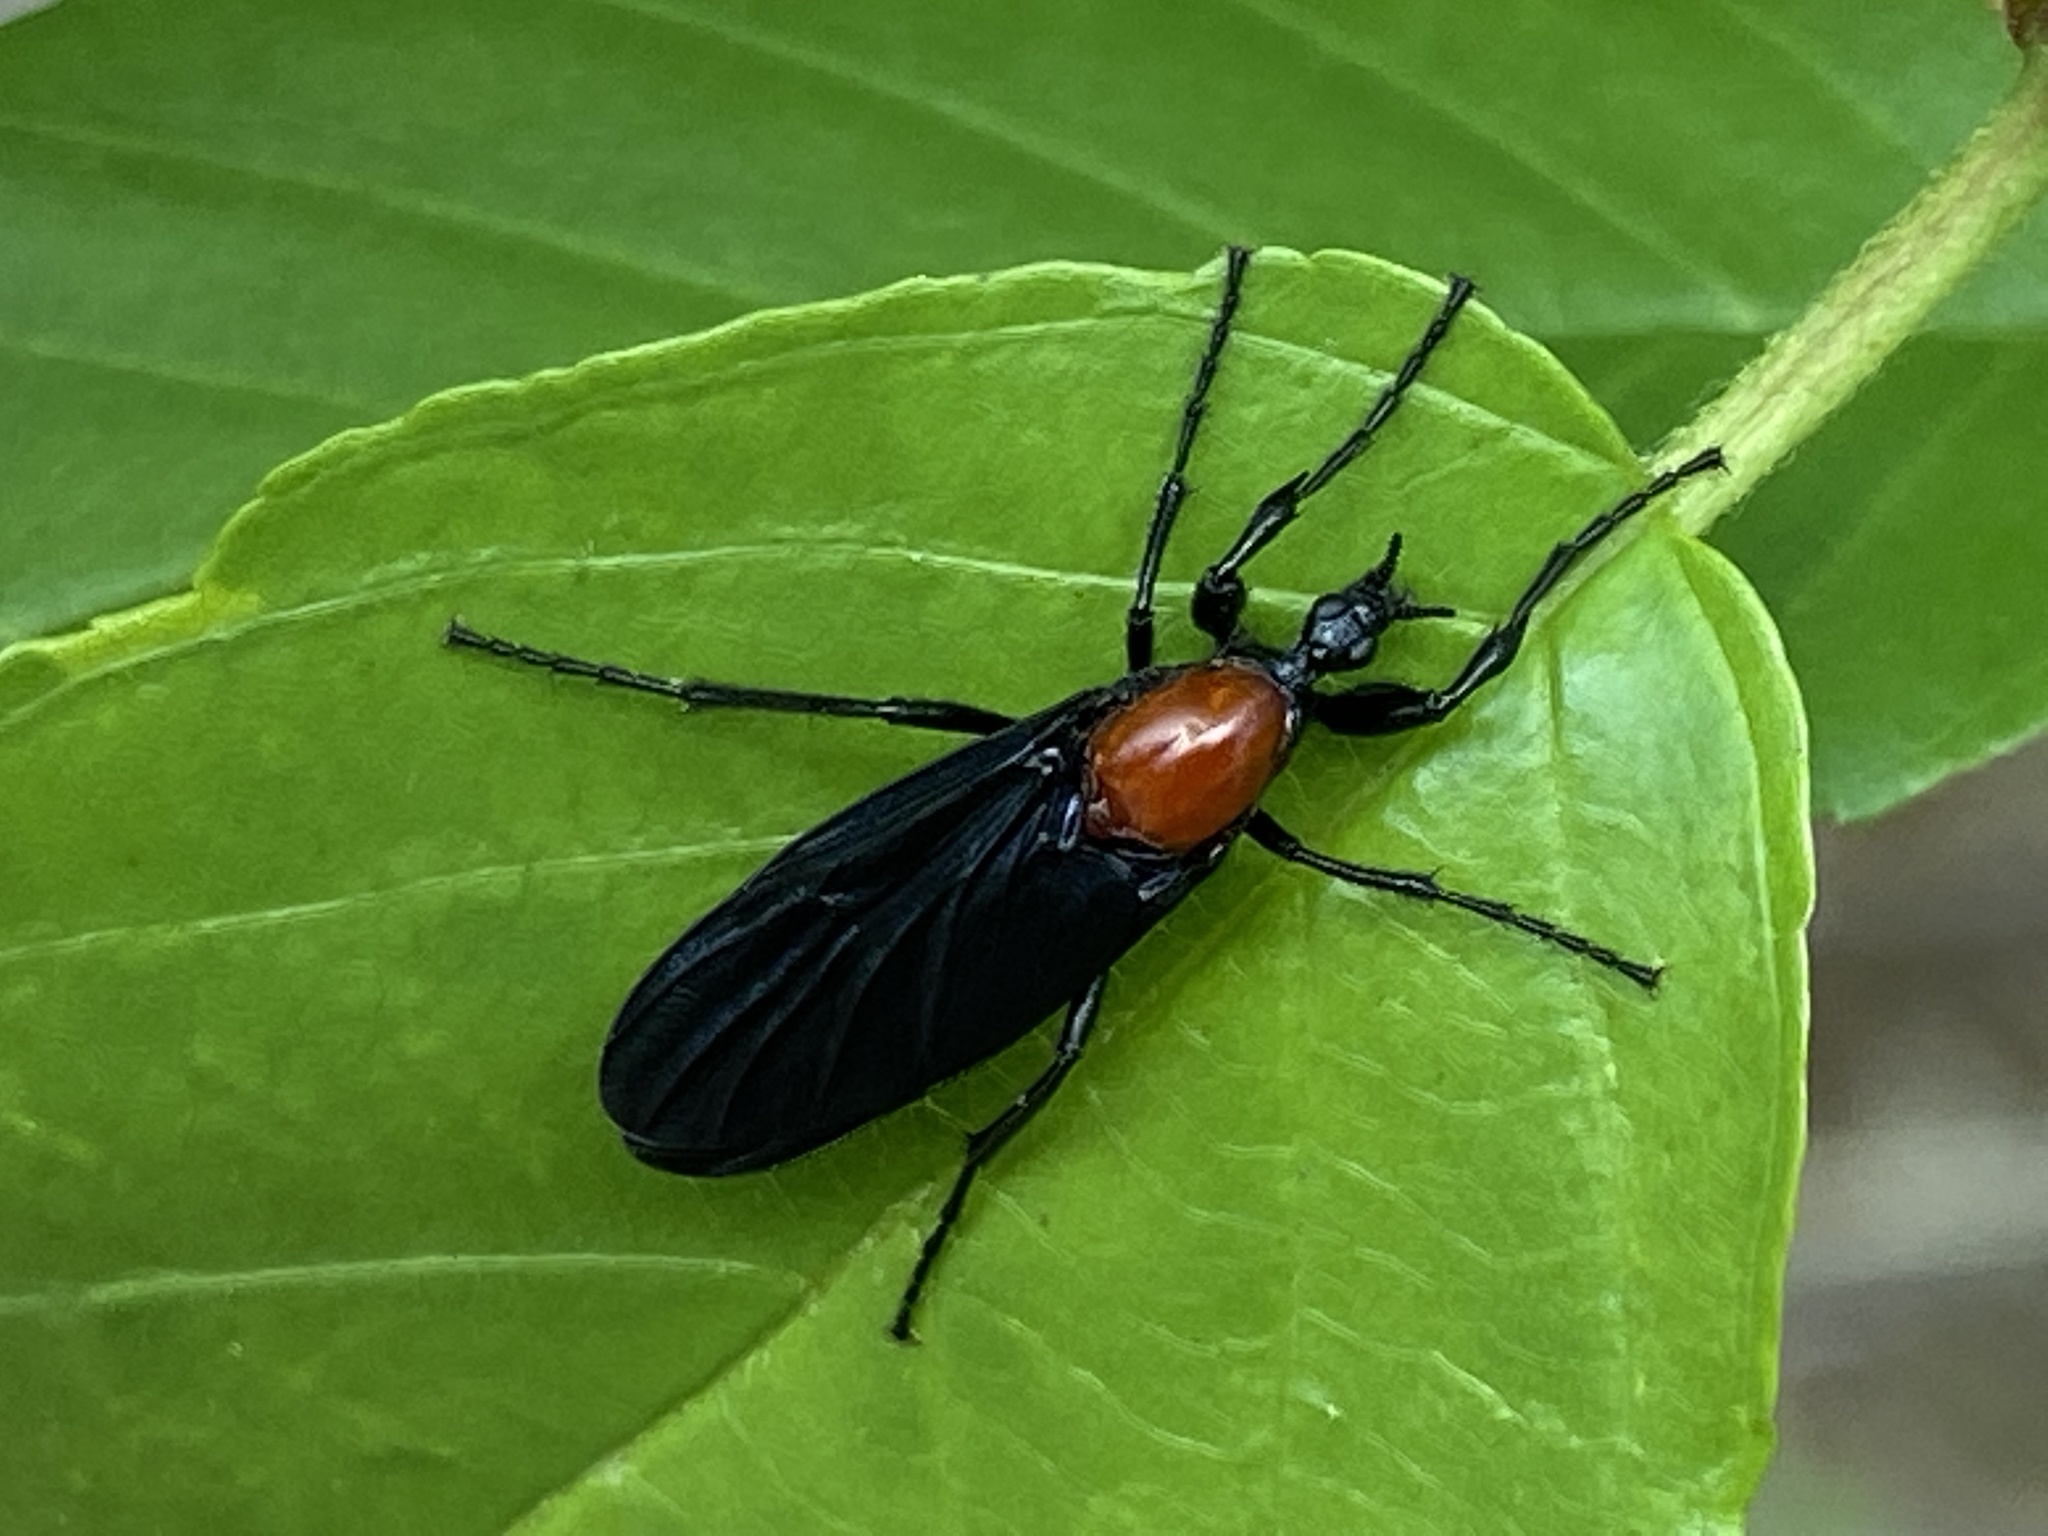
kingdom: Animalia
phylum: Arthropoda
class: Insecta
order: Diptera
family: Bibionidae
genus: Bibio
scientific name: Bibio superfluus
